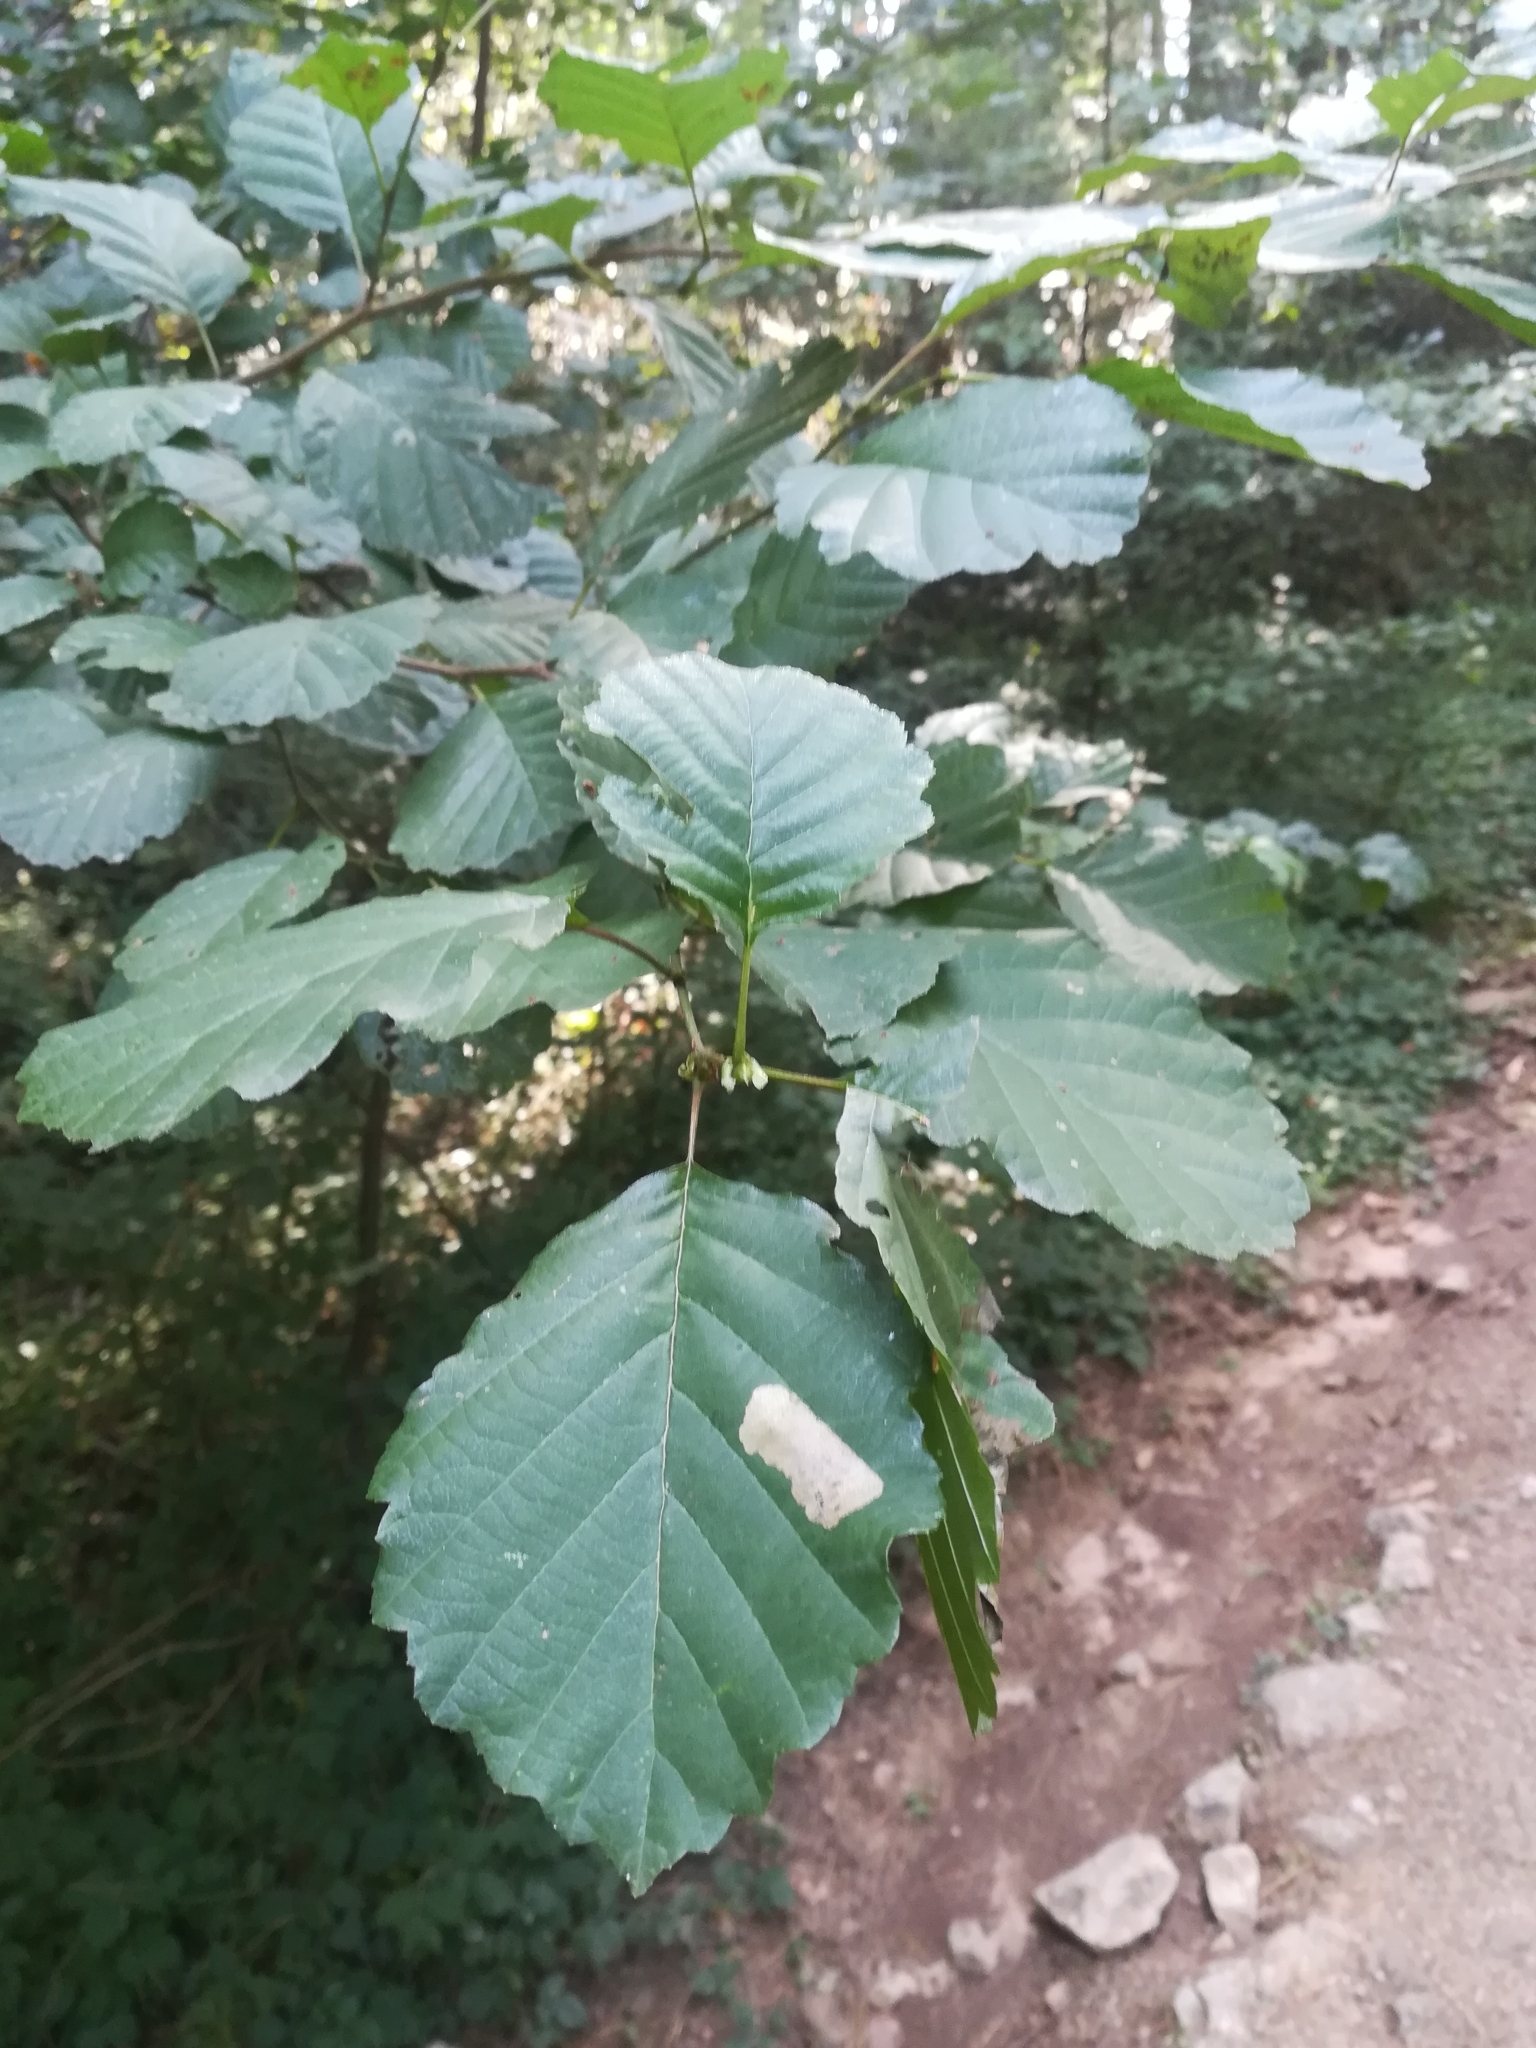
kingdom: Plantae
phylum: Tracheophyta
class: Magnoliopsida
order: Fagales
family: Betulaceae
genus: Alnus
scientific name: Alnus glutinosa
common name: Black alder
